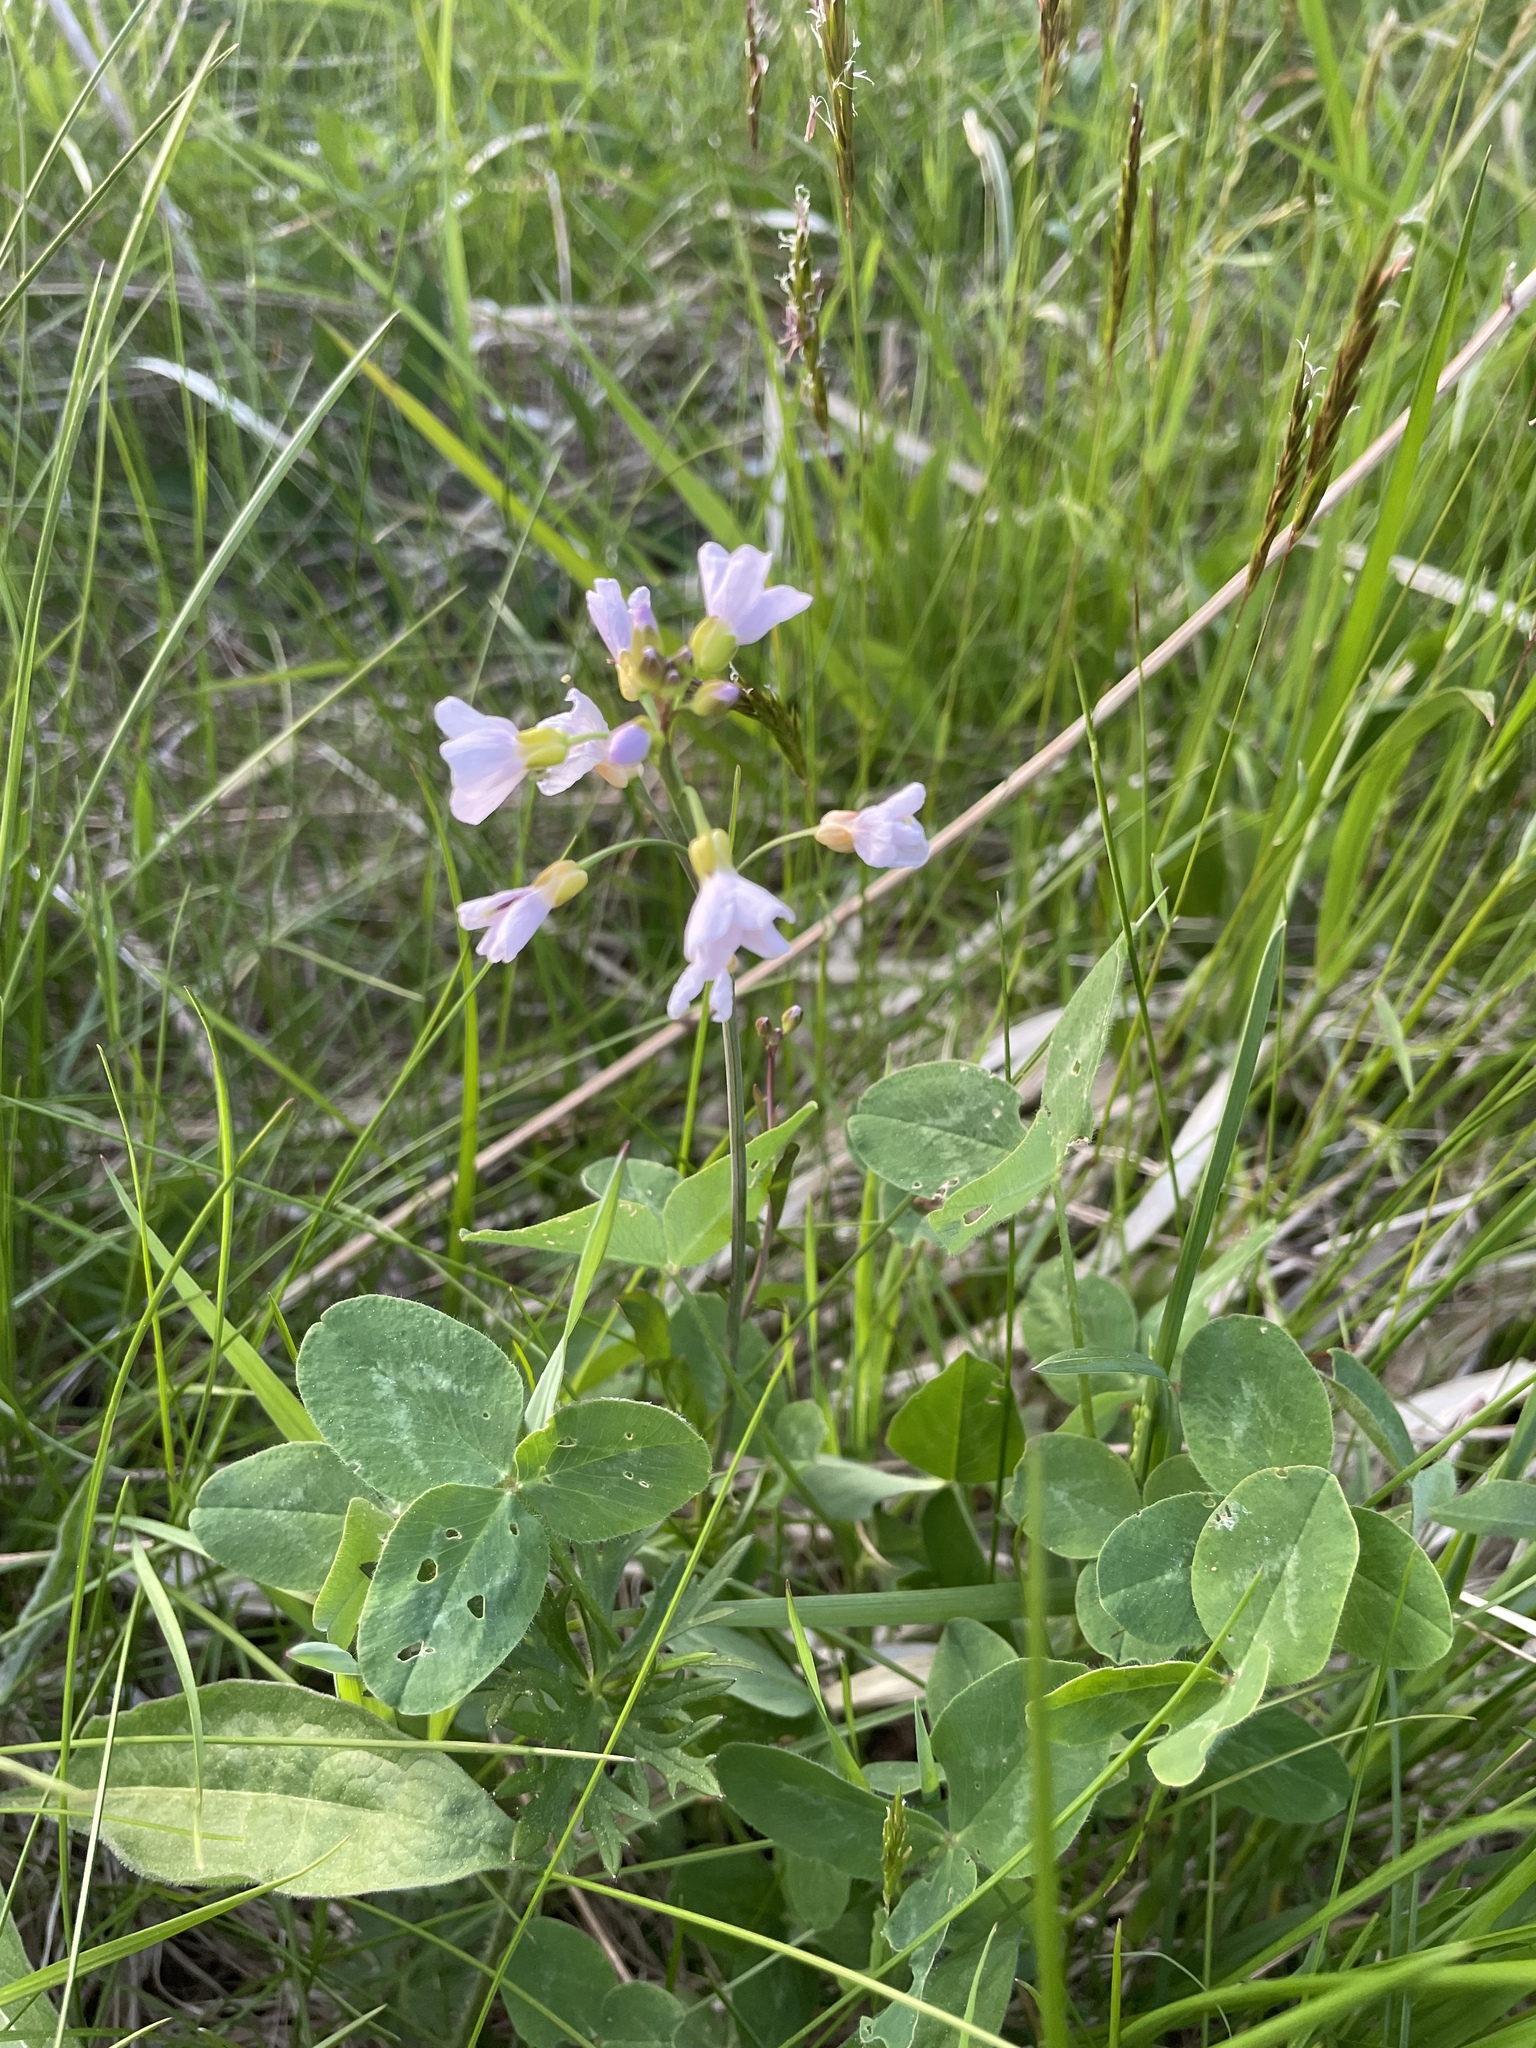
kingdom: Plantae
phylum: Tracheophyta
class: Magnoliopsida
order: Brassicales
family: Brassicaceae
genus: Cardamine
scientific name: Cardamine pratensis
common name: Cuckoo flower
